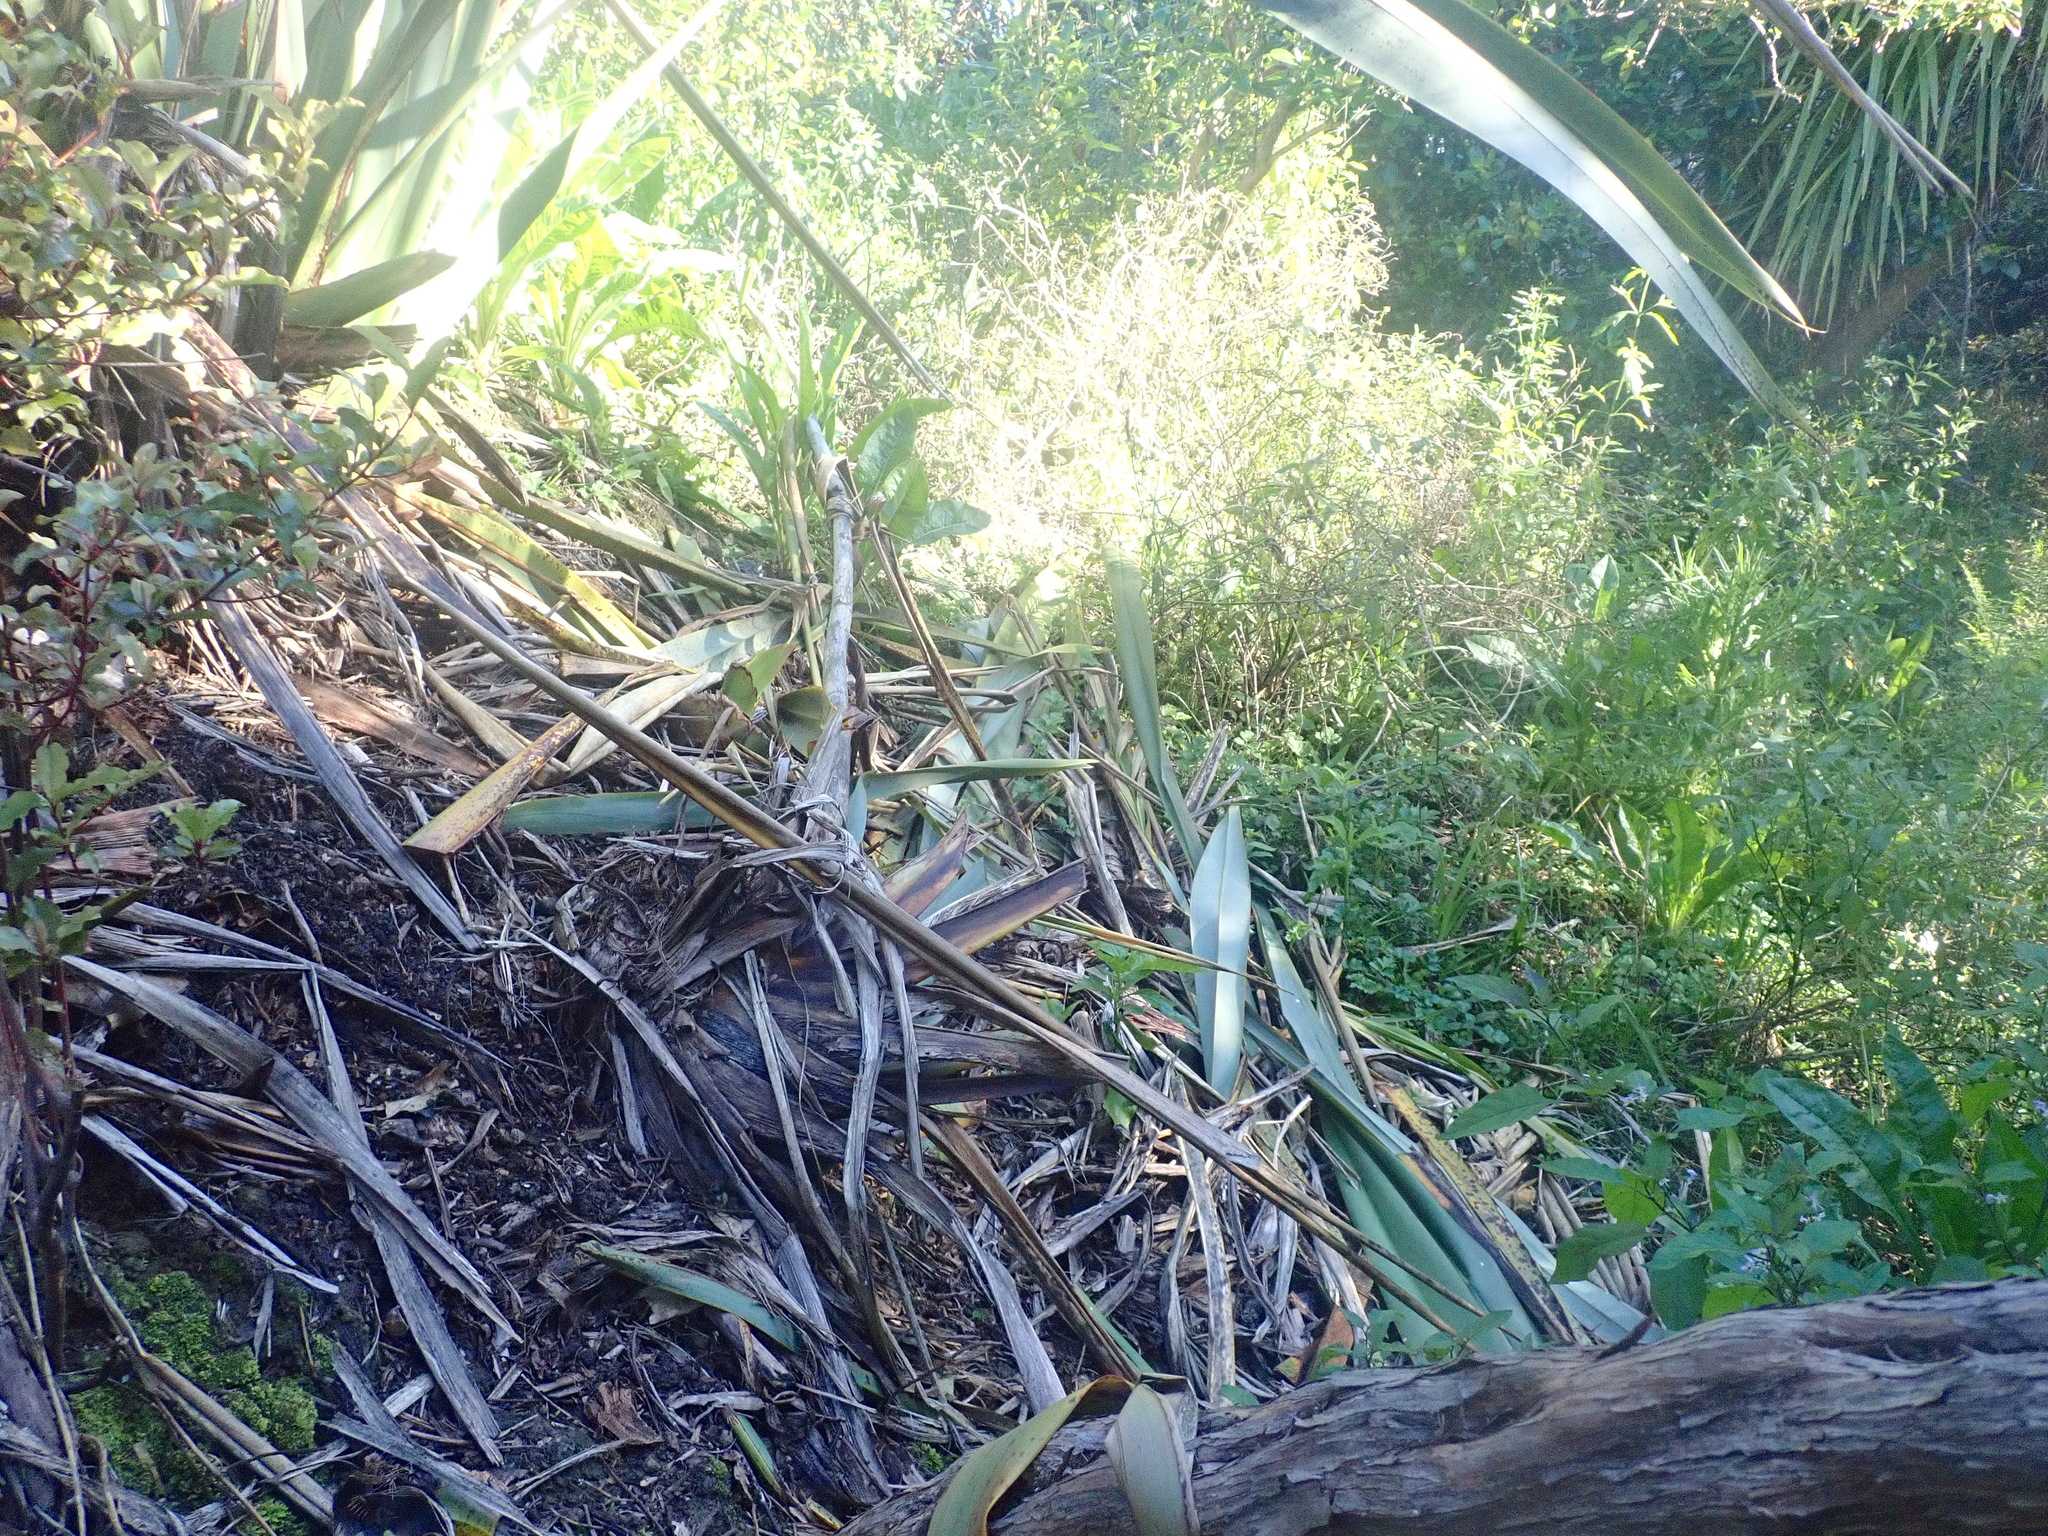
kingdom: Plantae
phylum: Tracheophyta
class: Magnoliopsida
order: Gentianales
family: Rubiaceae
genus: Coprosma
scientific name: Coprosma robusta
